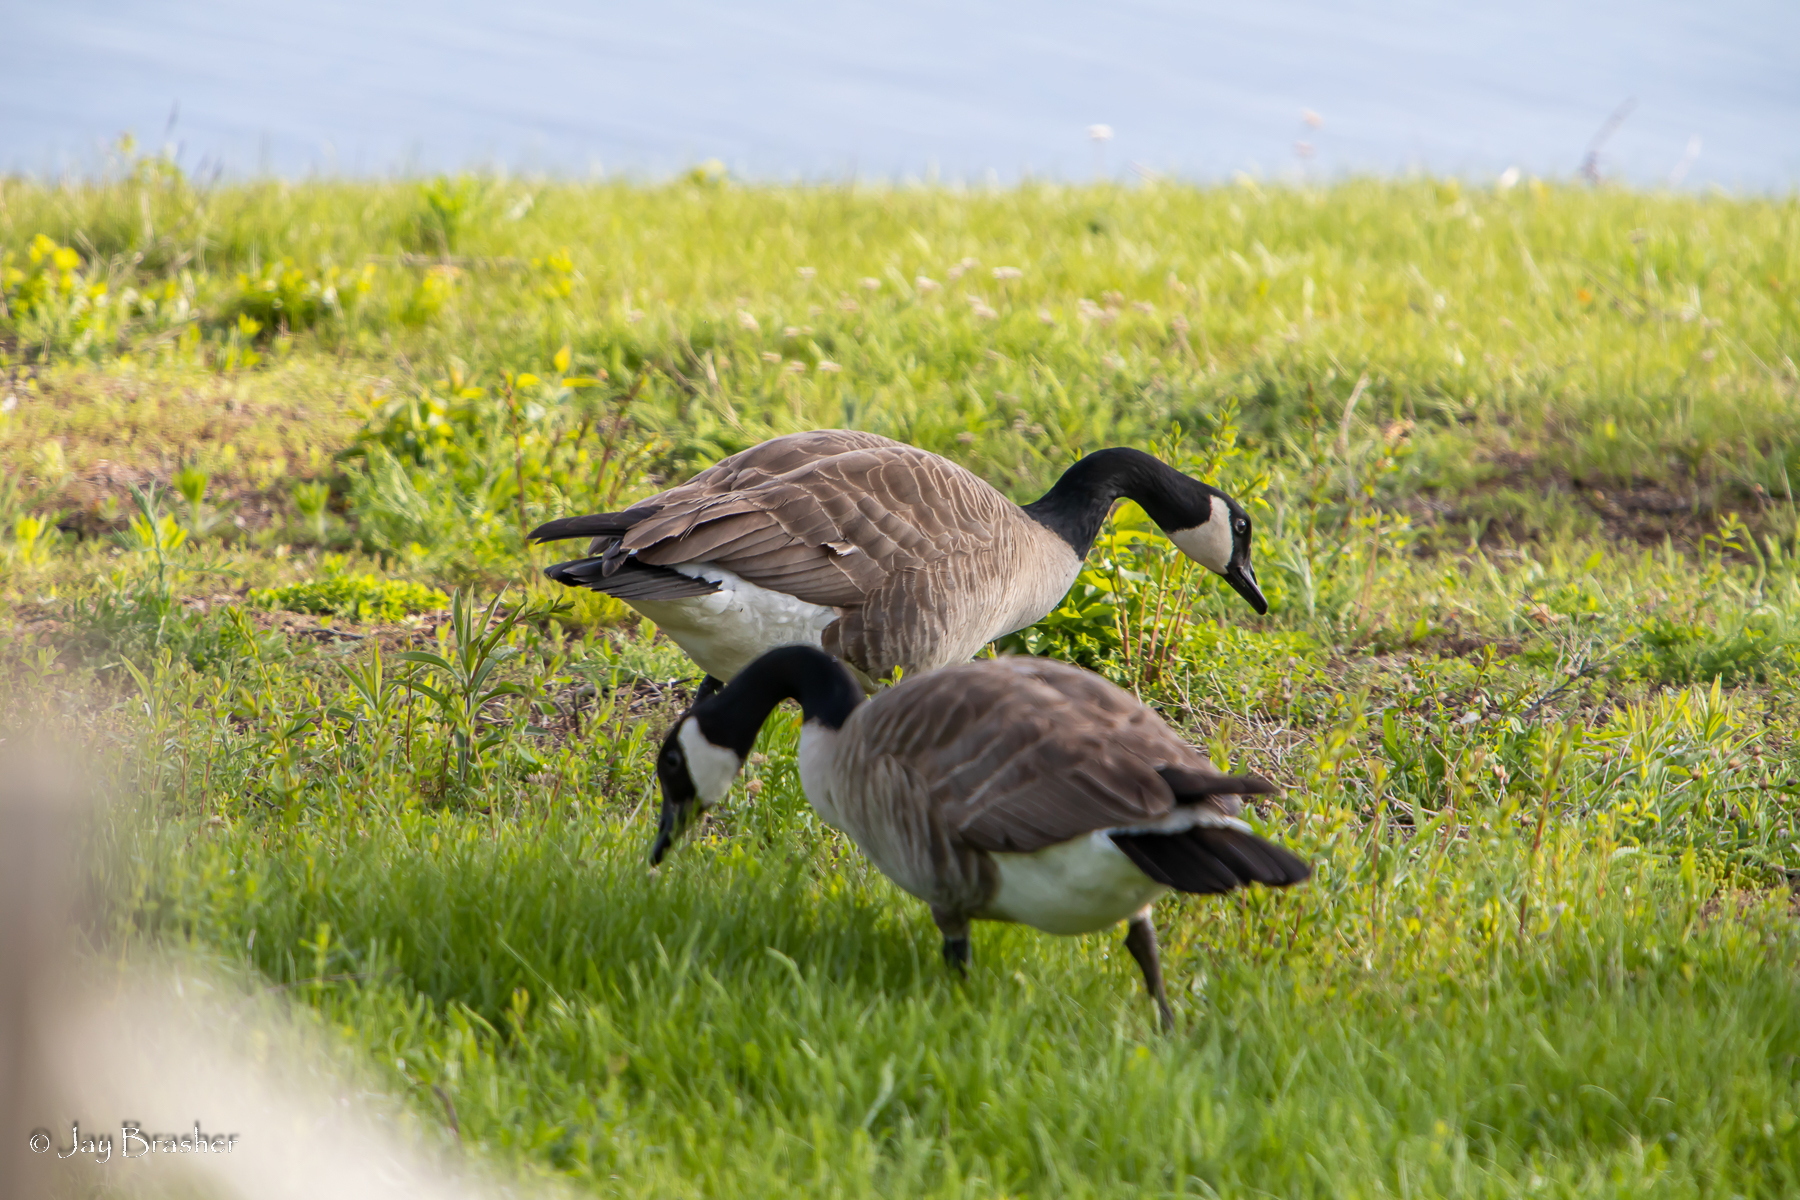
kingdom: Animalia
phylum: Chordata
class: Aves
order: Anseriformes
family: Anatidae
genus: Branta
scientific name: Branta canadensis
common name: Canada goose
